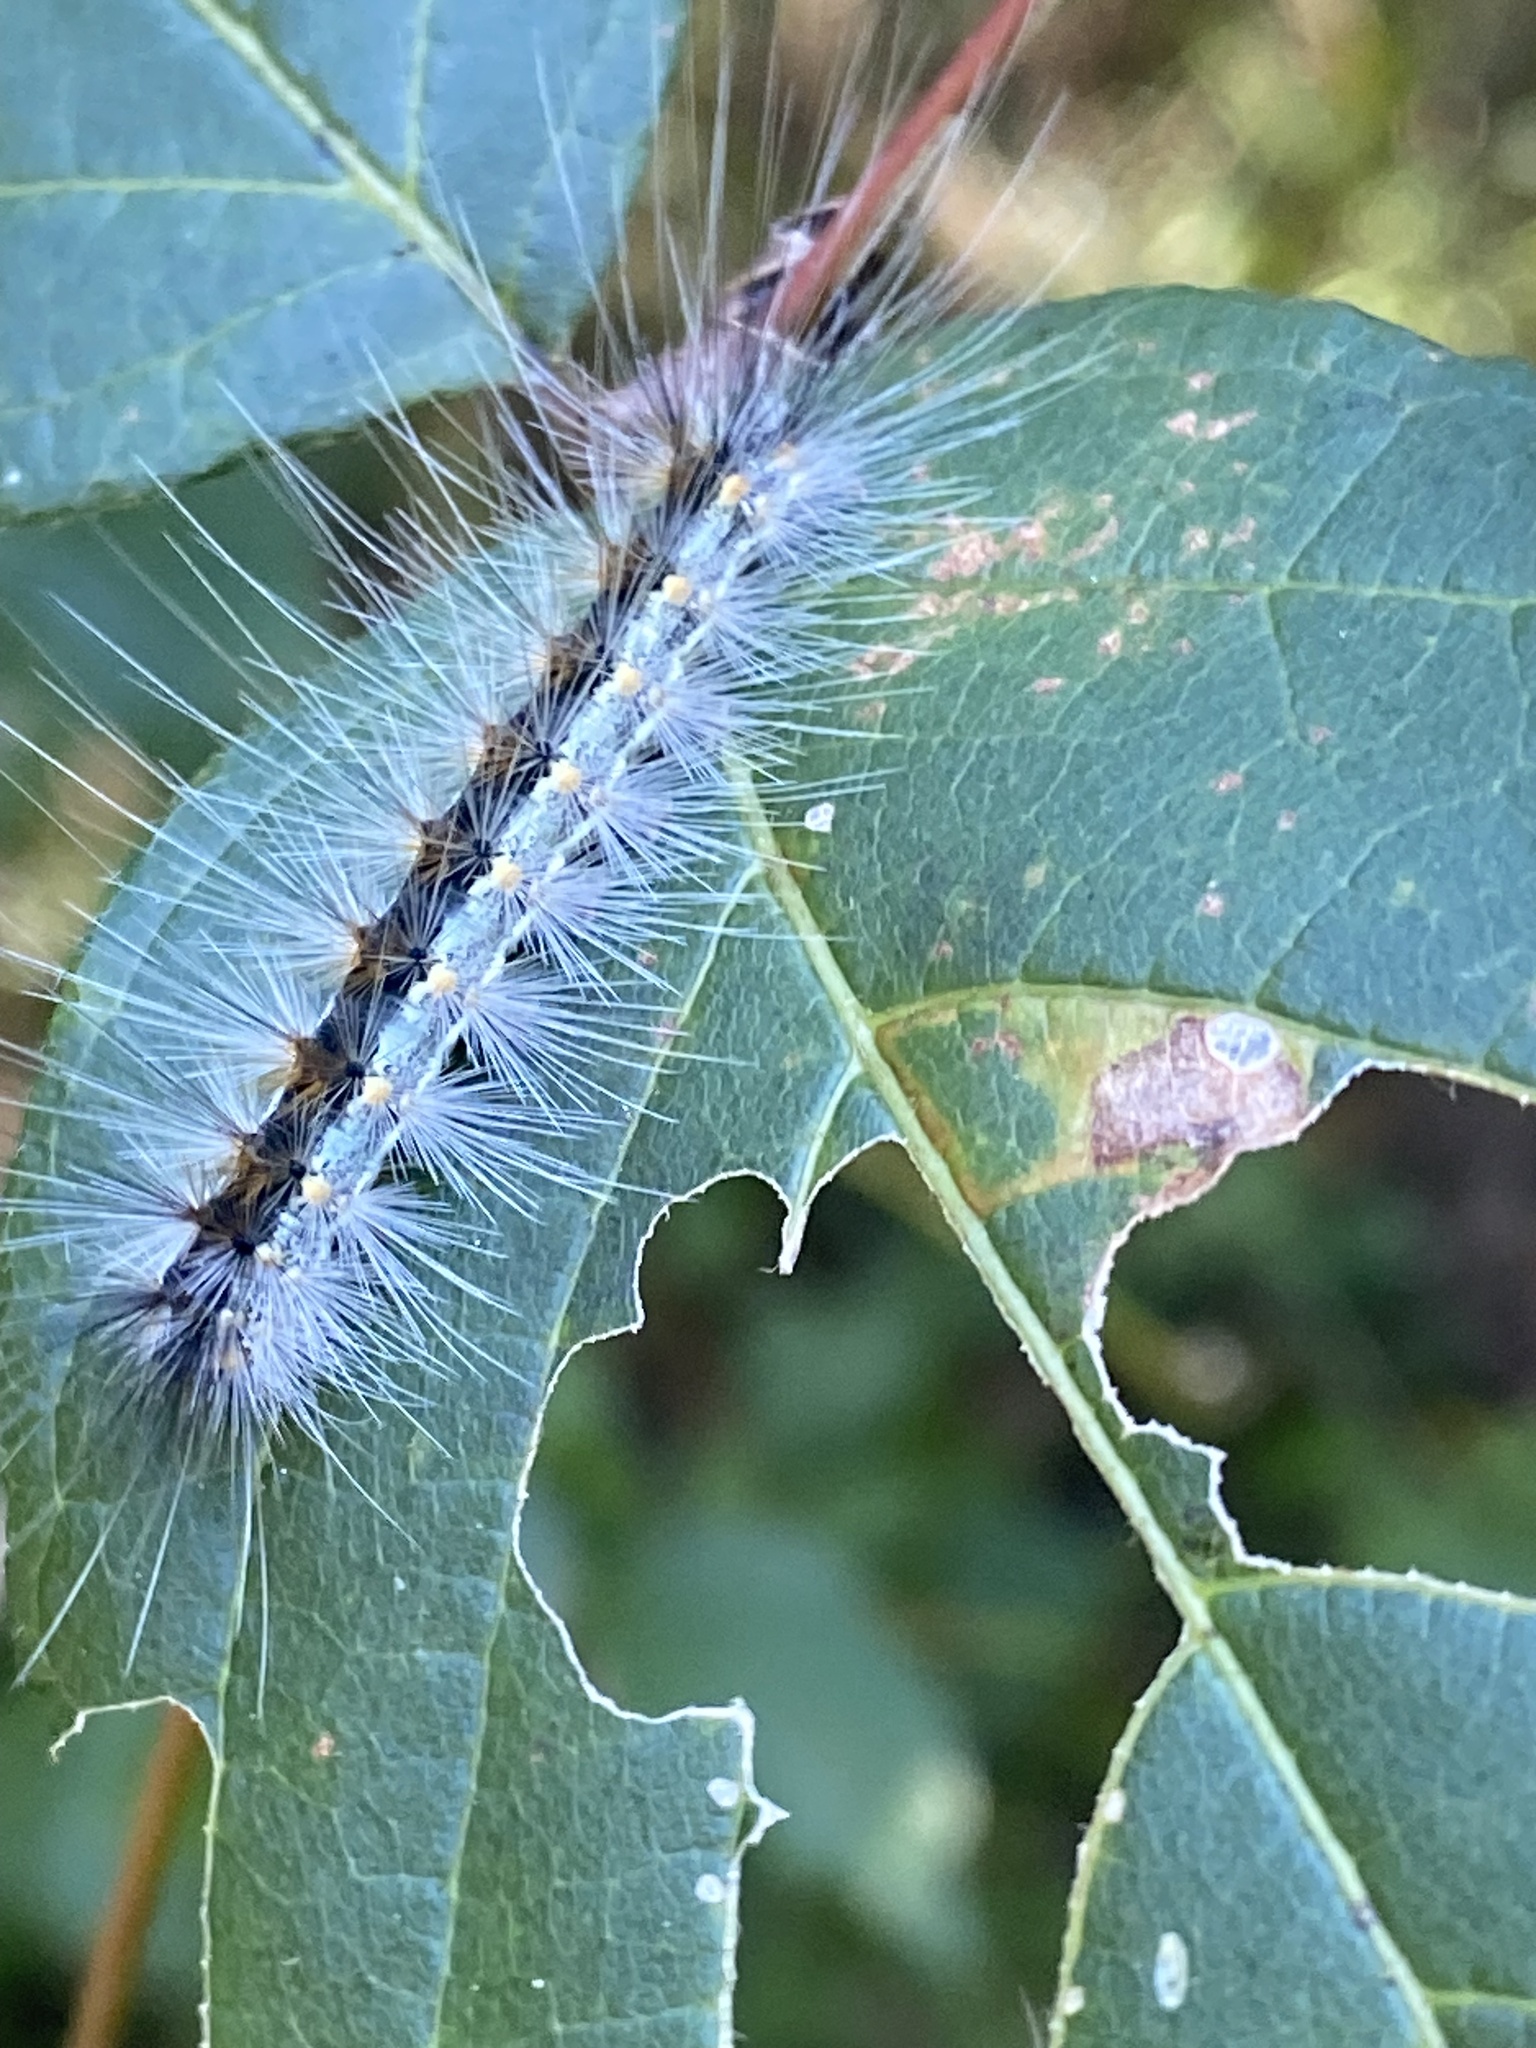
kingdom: Animalia
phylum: Arthropoda
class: Insecta
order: Lepidoptera
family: Erebidae
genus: Hyphantria
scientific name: Hyphantria cunea
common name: American white moth
